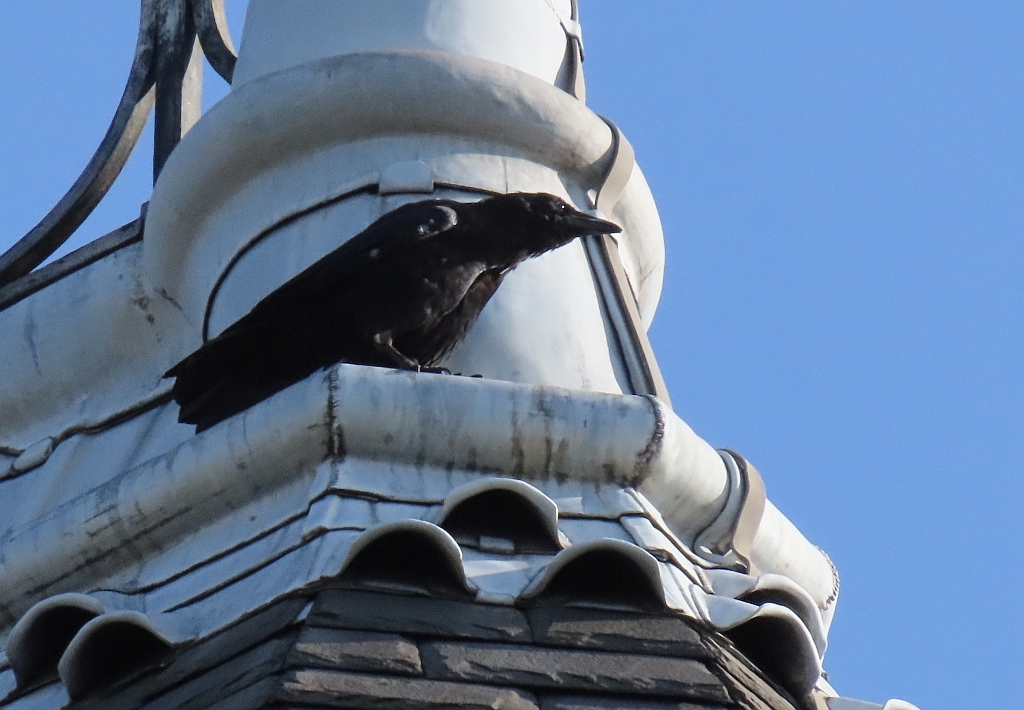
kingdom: Animalia
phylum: Chordata
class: Aves
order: Passeriformes
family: Corvidae
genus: Corvus
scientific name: Corvus corone
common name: Carrion crow
